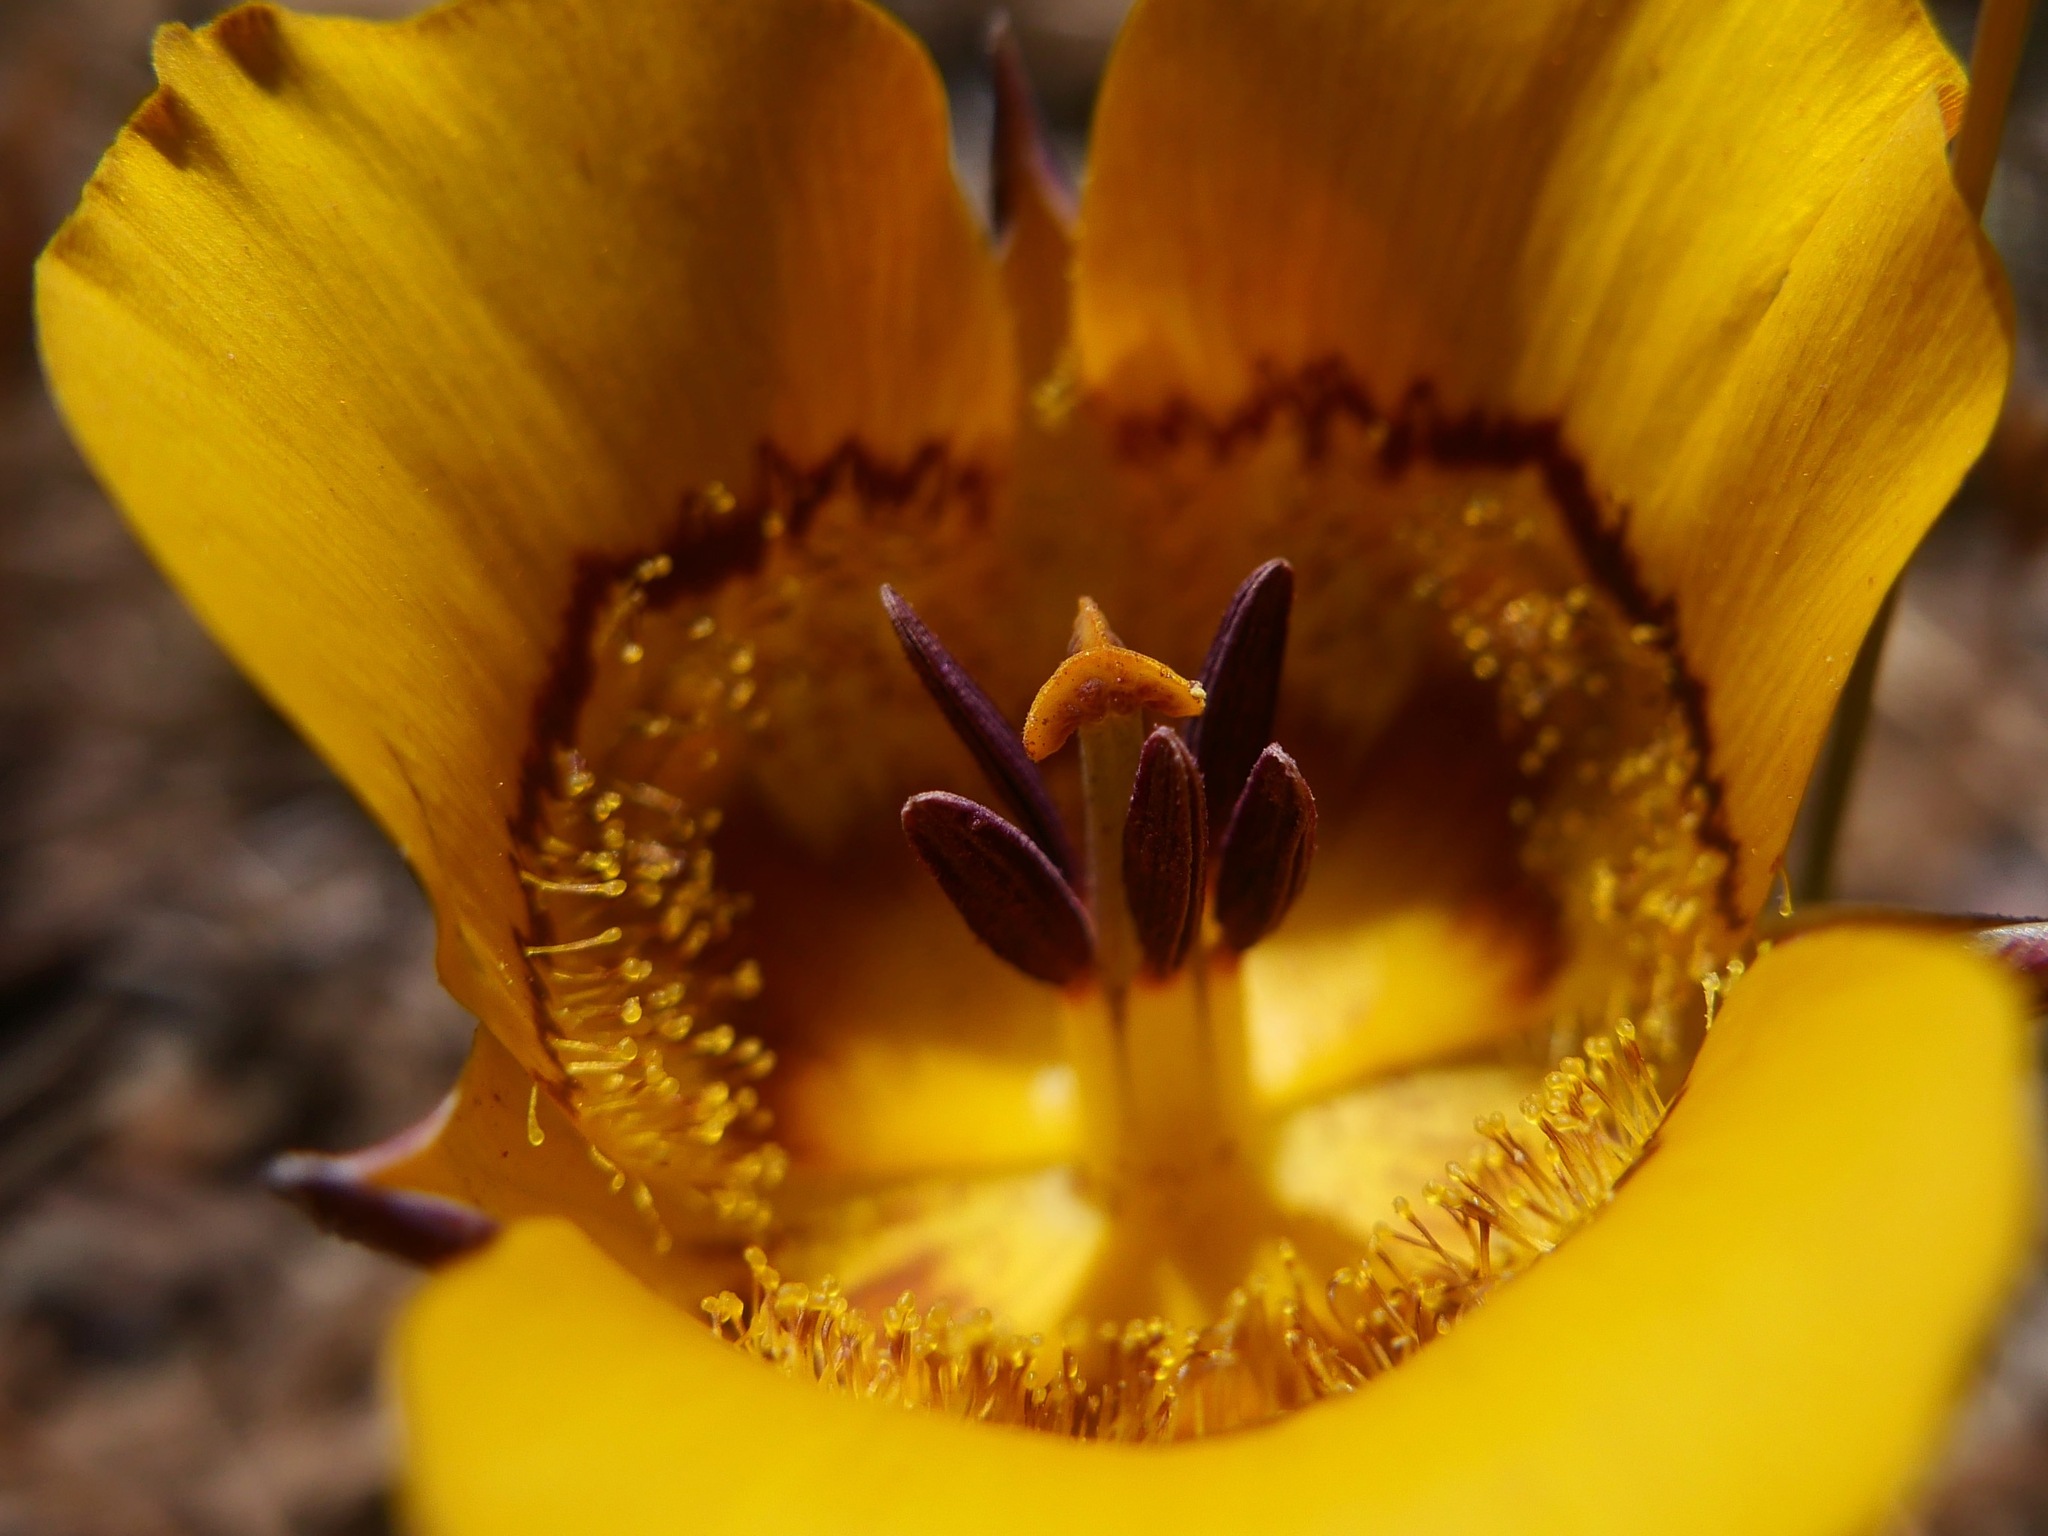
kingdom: Plantae
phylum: Tracheophyta
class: Liliopsida
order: Liliales
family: Liliaceae
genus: Calochortus
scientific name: Calochortus clavatus
